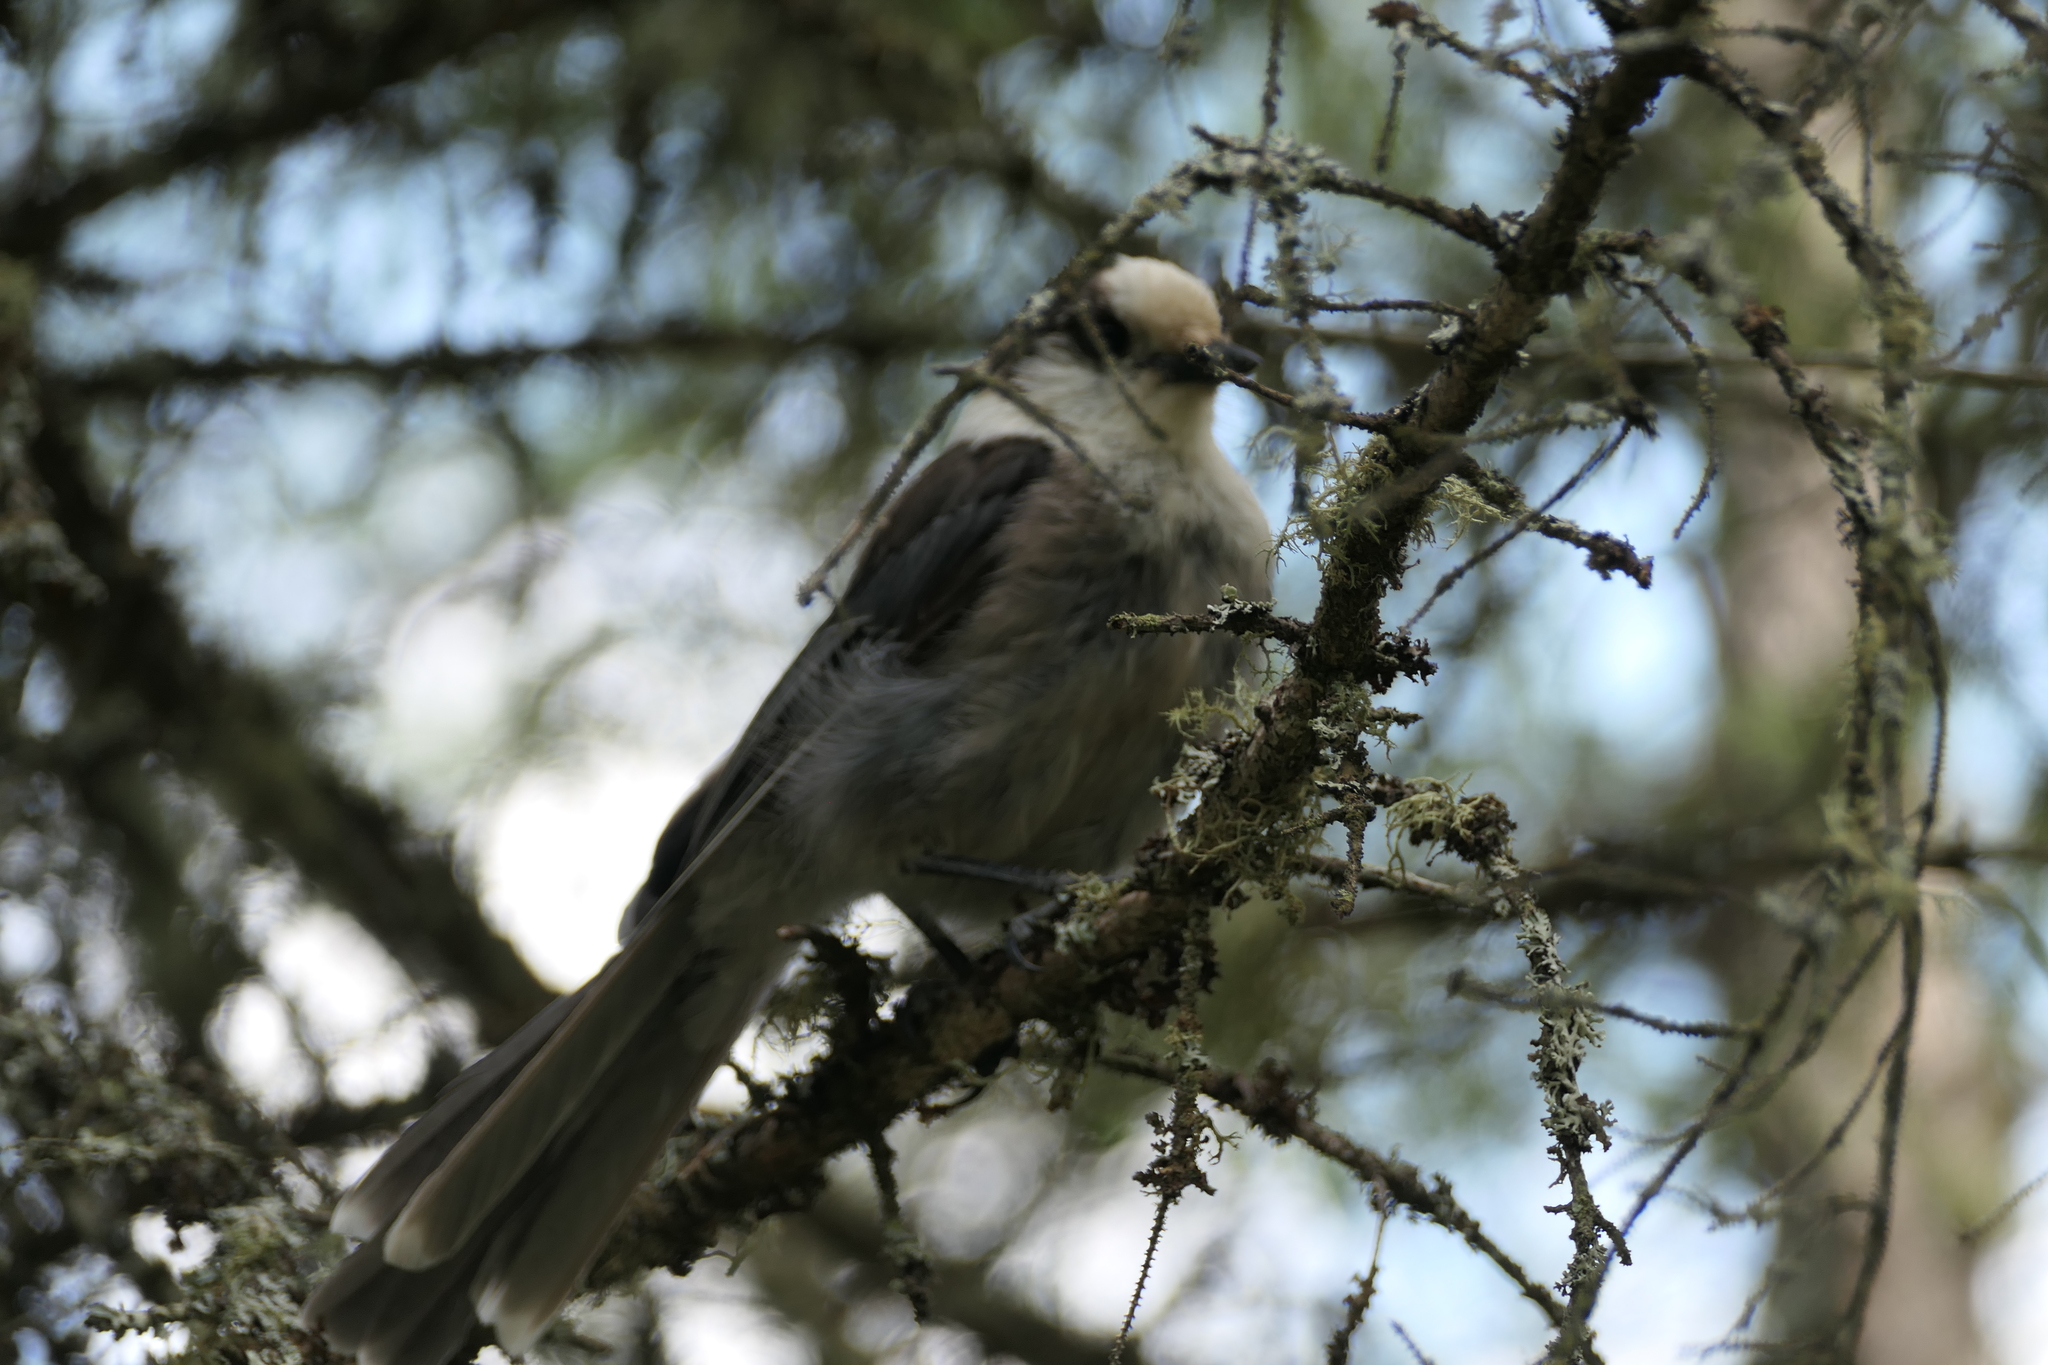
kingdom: Animalia
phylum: Chordata
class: Aves
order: Passeriformes
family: Corvidae
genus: Perisoreus
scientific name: Perisoreus canadensis
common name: Gray jay
